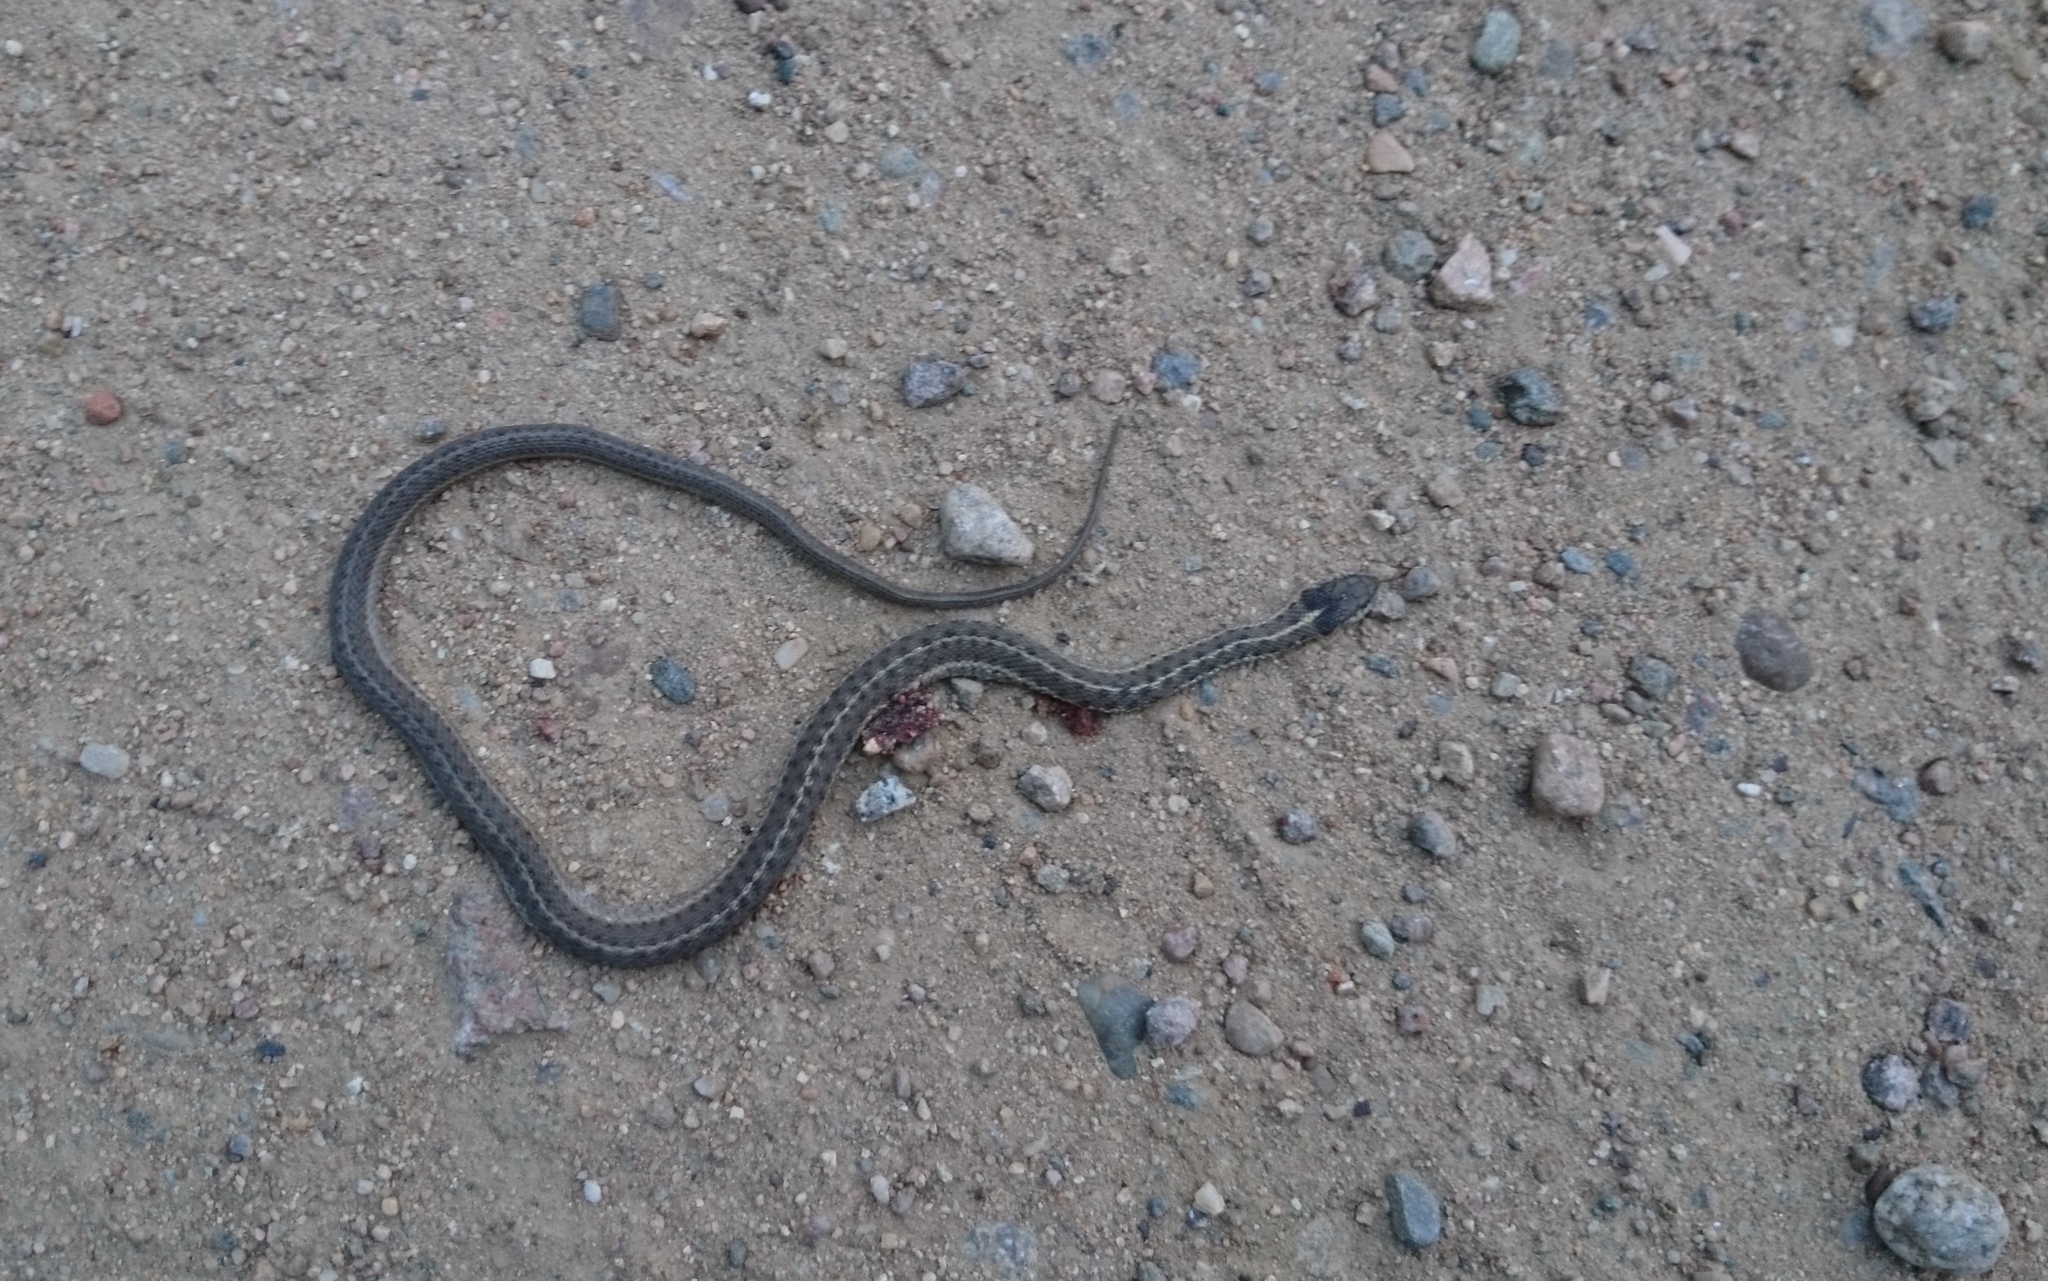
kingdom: Animalia
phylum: Chordata
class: Squamata
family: Colubridae
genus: Thamnophis
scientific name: Thamnophis elegans
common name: Western terrestrial garter snake
